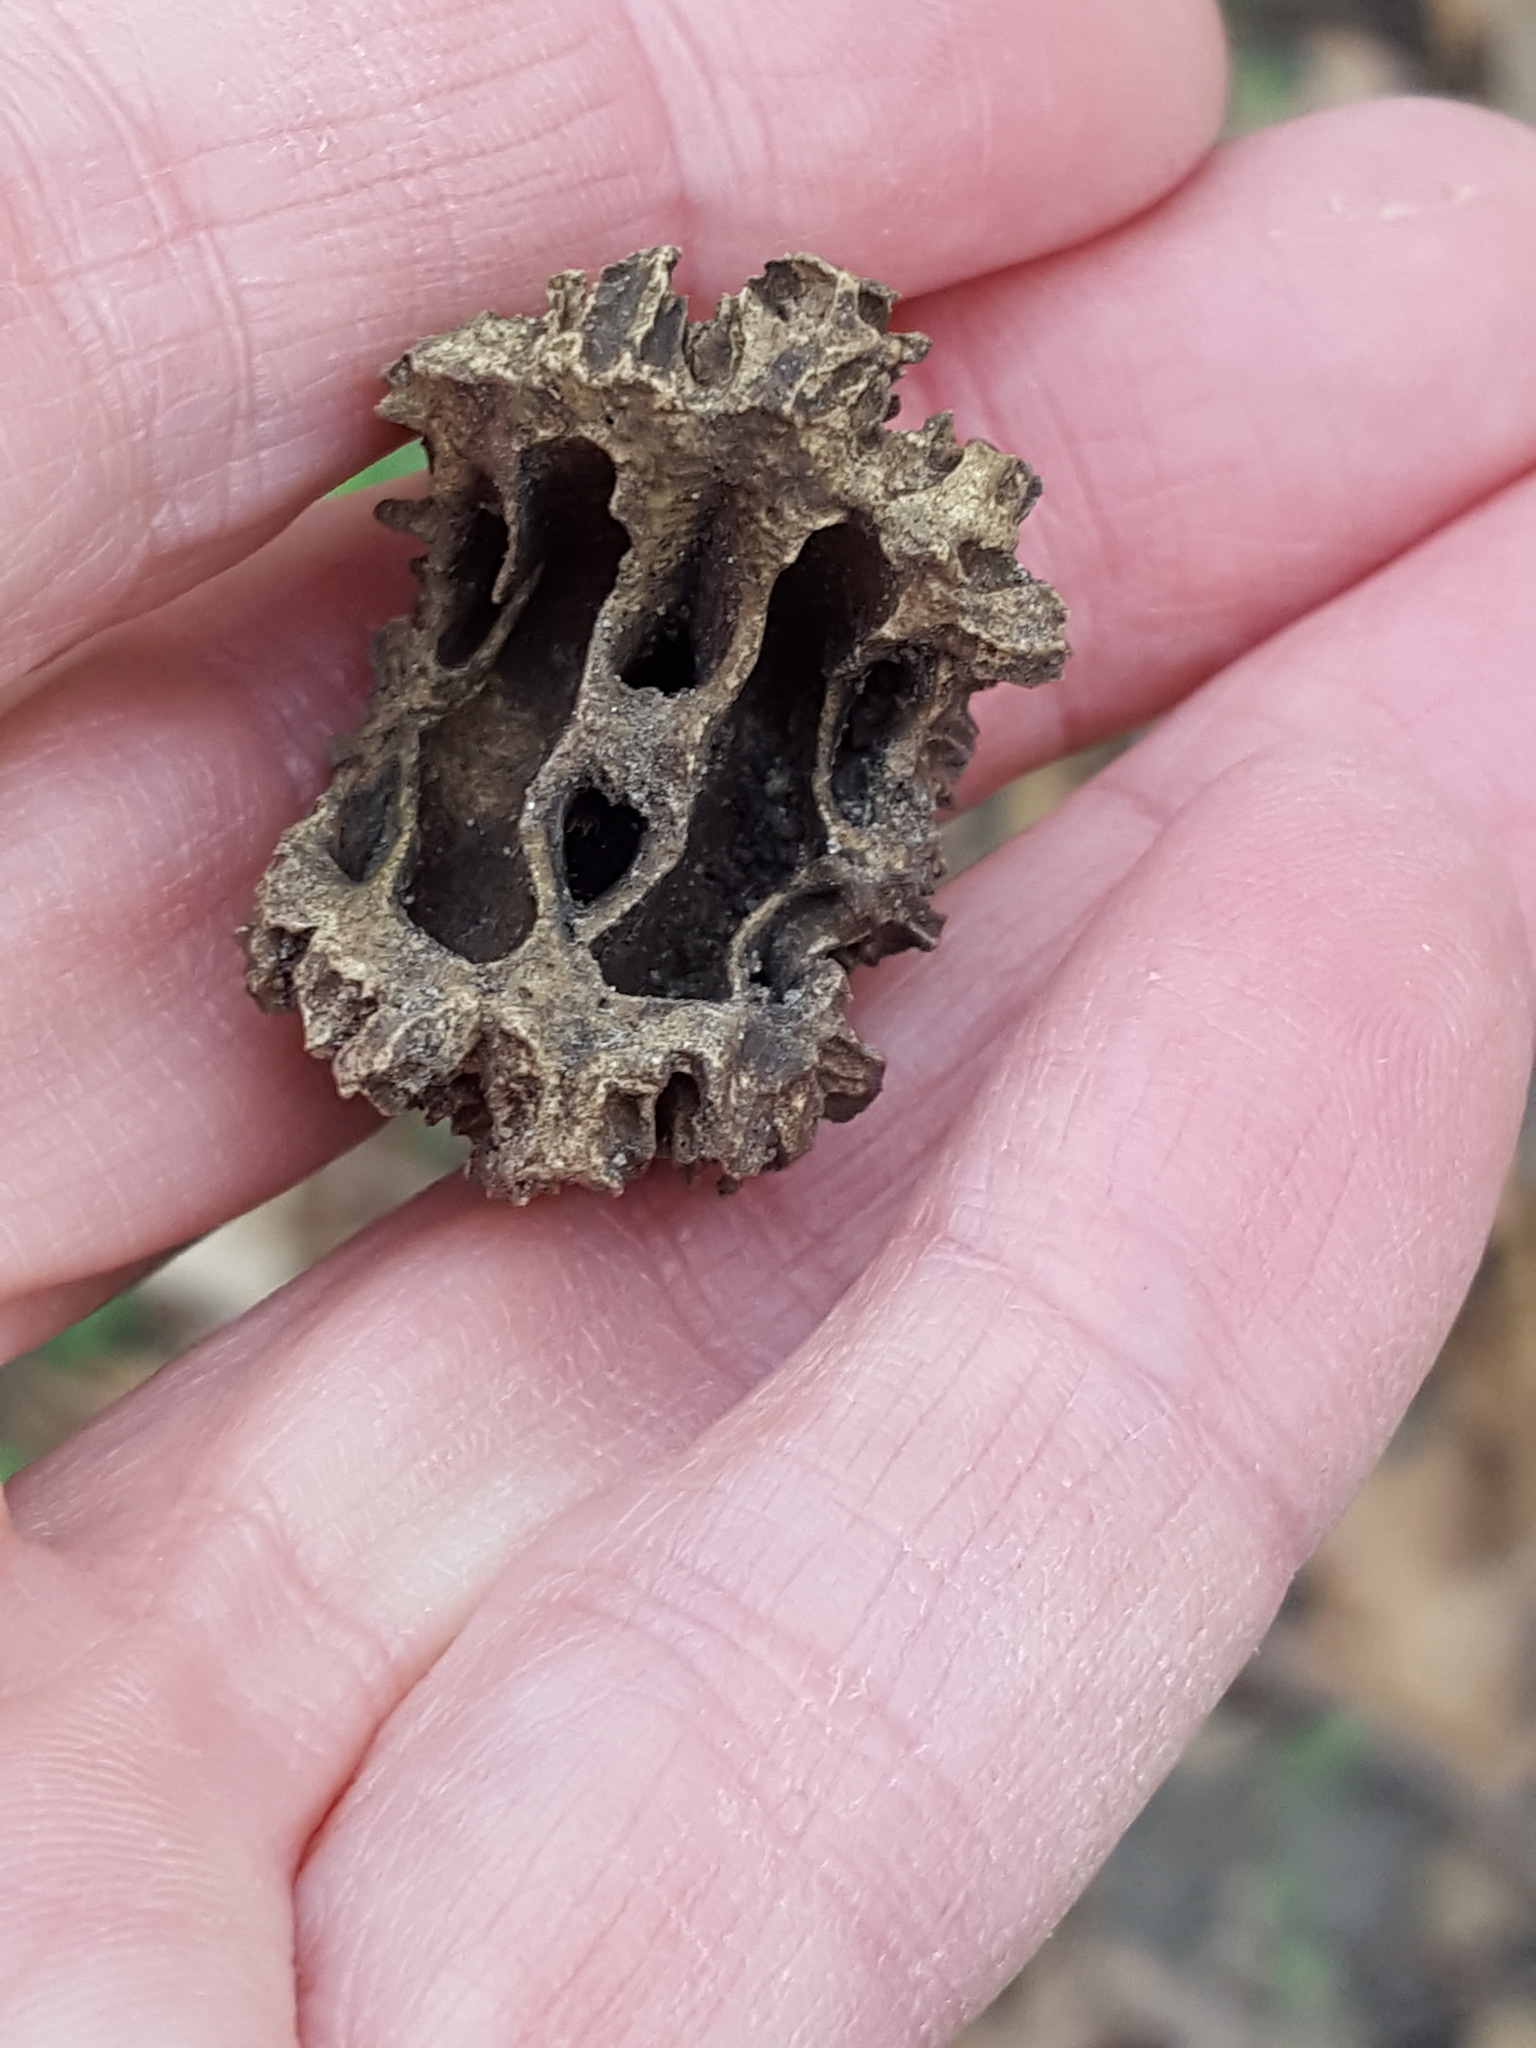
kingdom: Plantae
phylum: Tracheophyta
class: Magnoliopsida
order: Fagales
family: Juglandaceae
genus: Juglans
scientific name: Juglans nigra
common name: Black walnut
